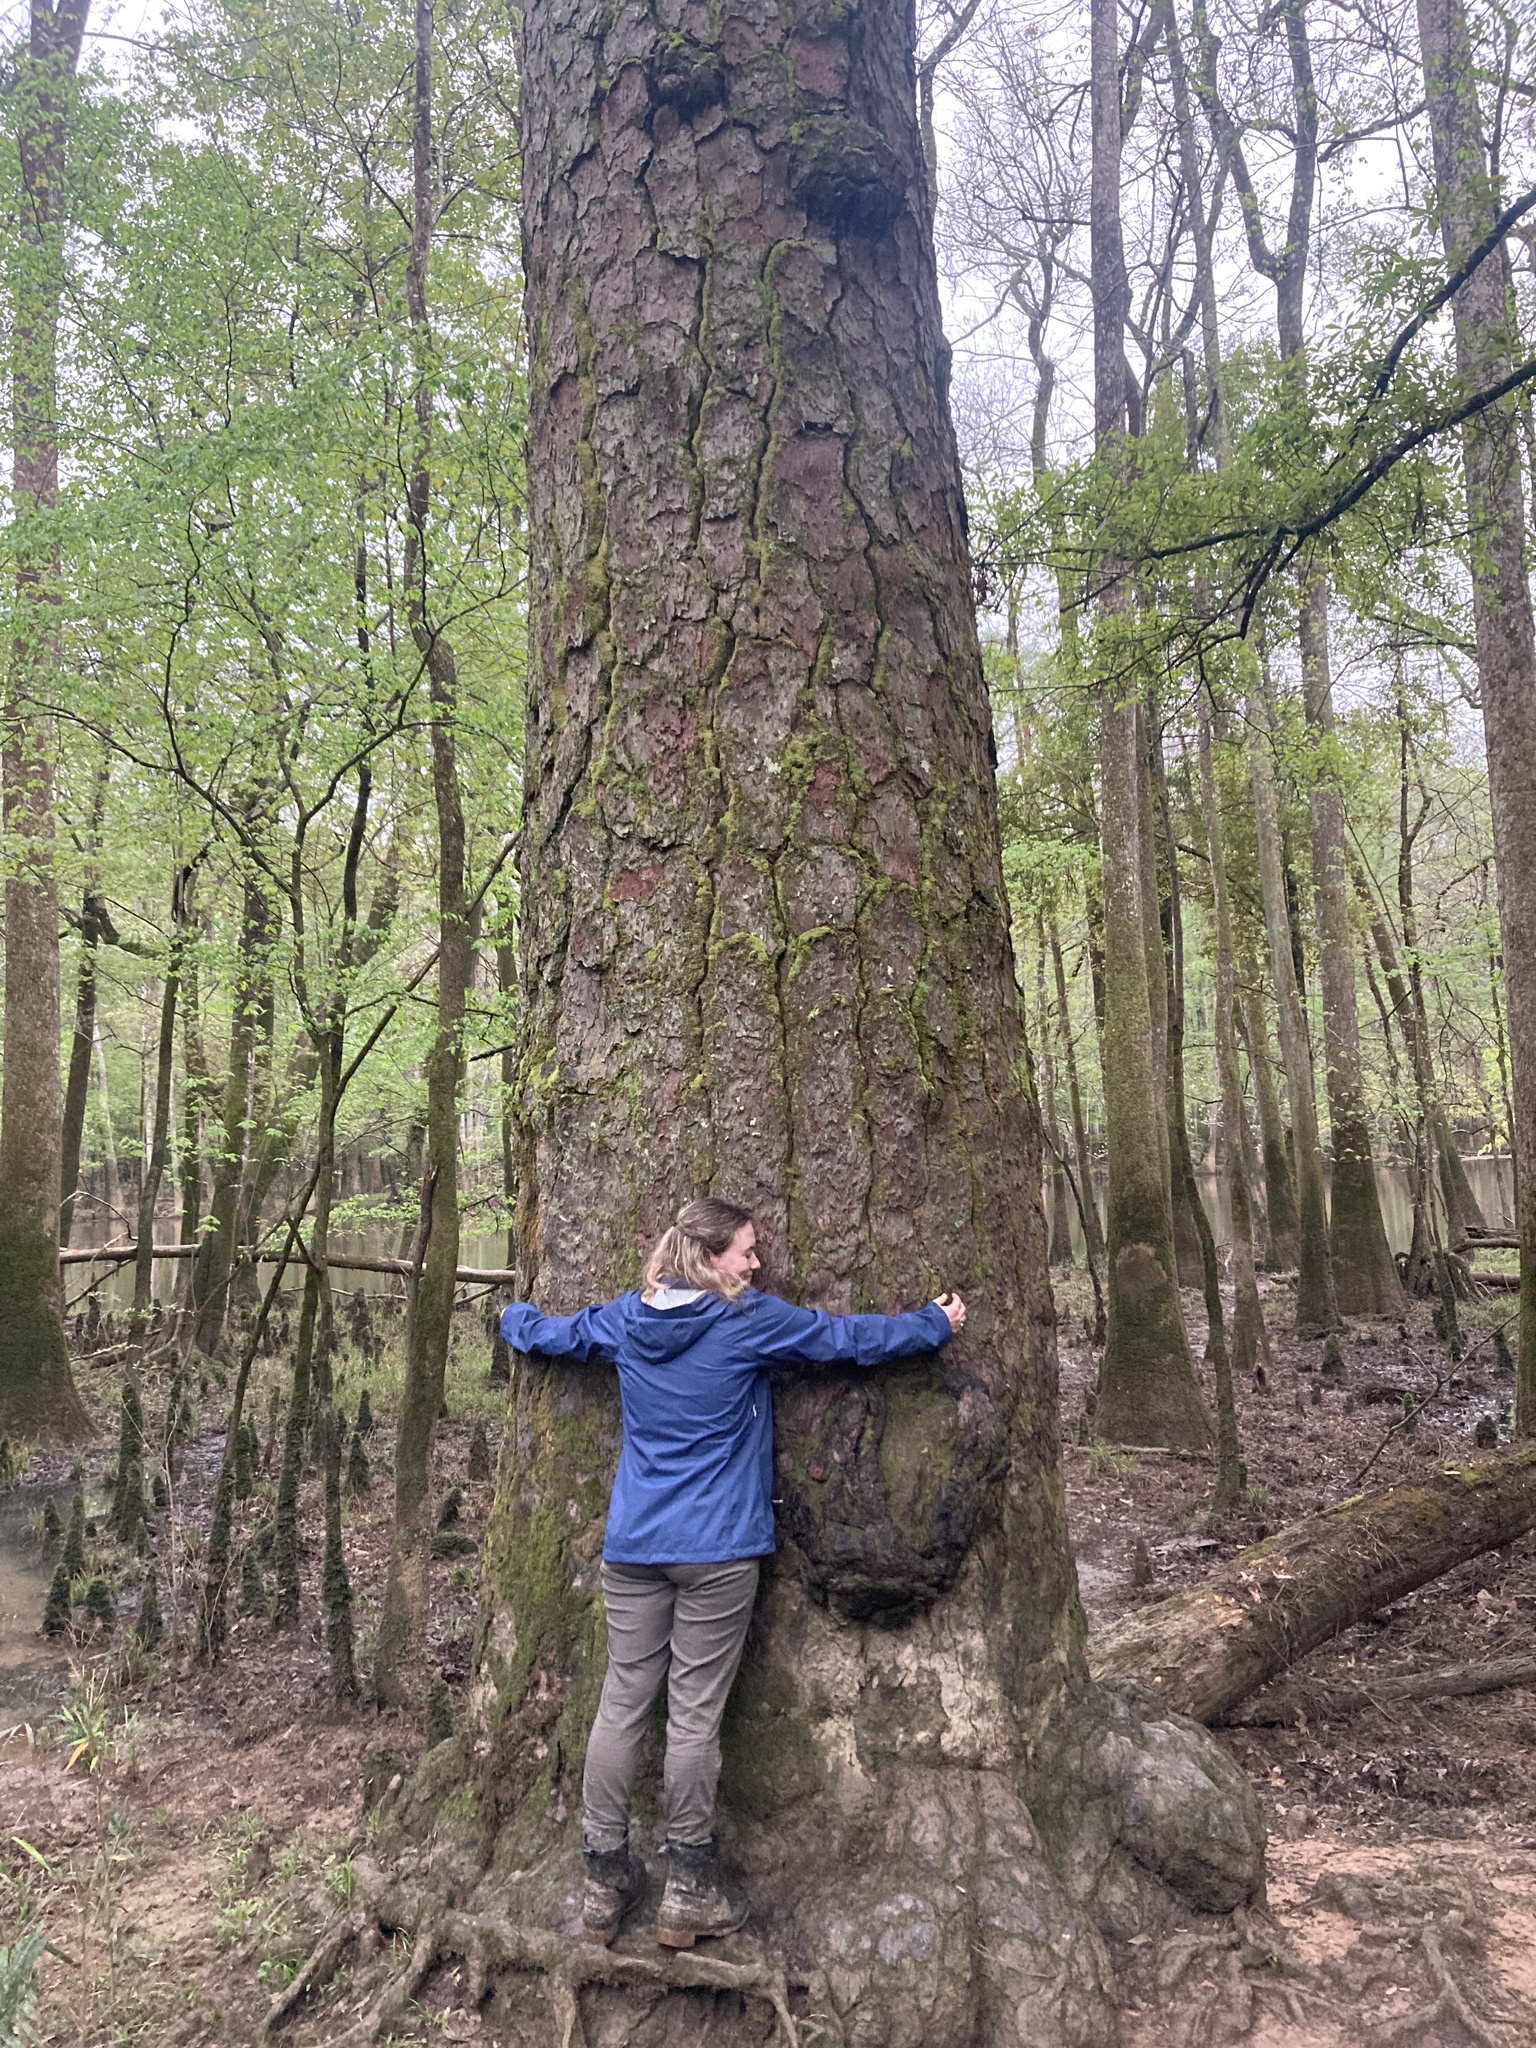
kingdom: Plantae
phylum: Tracheophyta
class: Pinopsida
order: Pinales
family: Pinaceae
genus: Pinus
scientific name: Pinus taeda
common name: Loblolly pine
